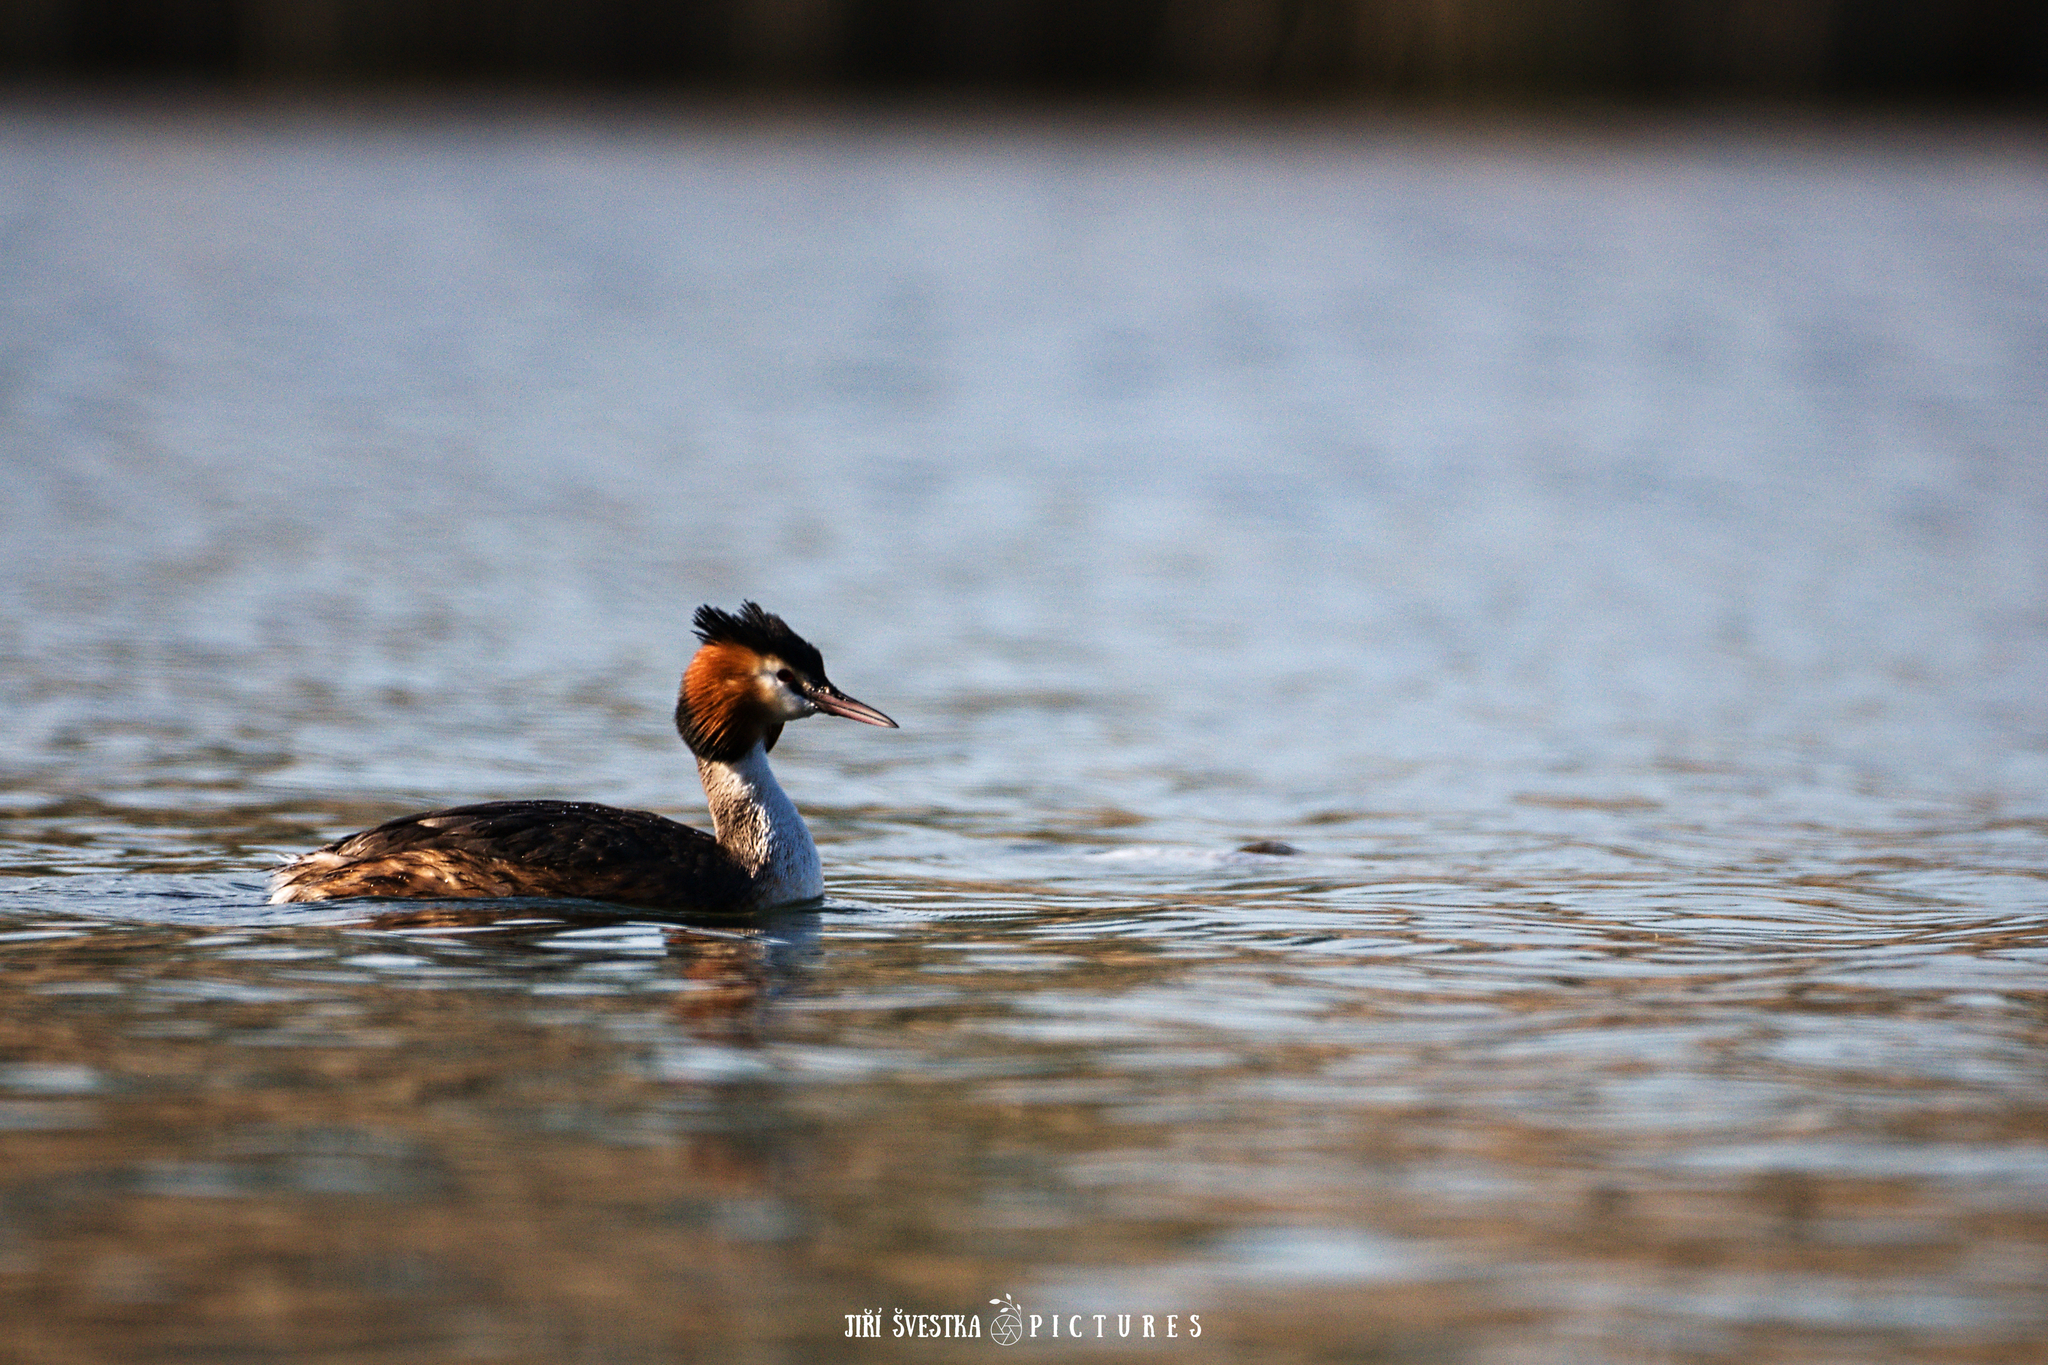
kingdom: Animalia
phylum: Chordata
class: Aves
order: Podicipediformes
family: Podicipedidae
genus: Podiceps
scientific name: Podiceps cristatus
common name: Great crested grebe
